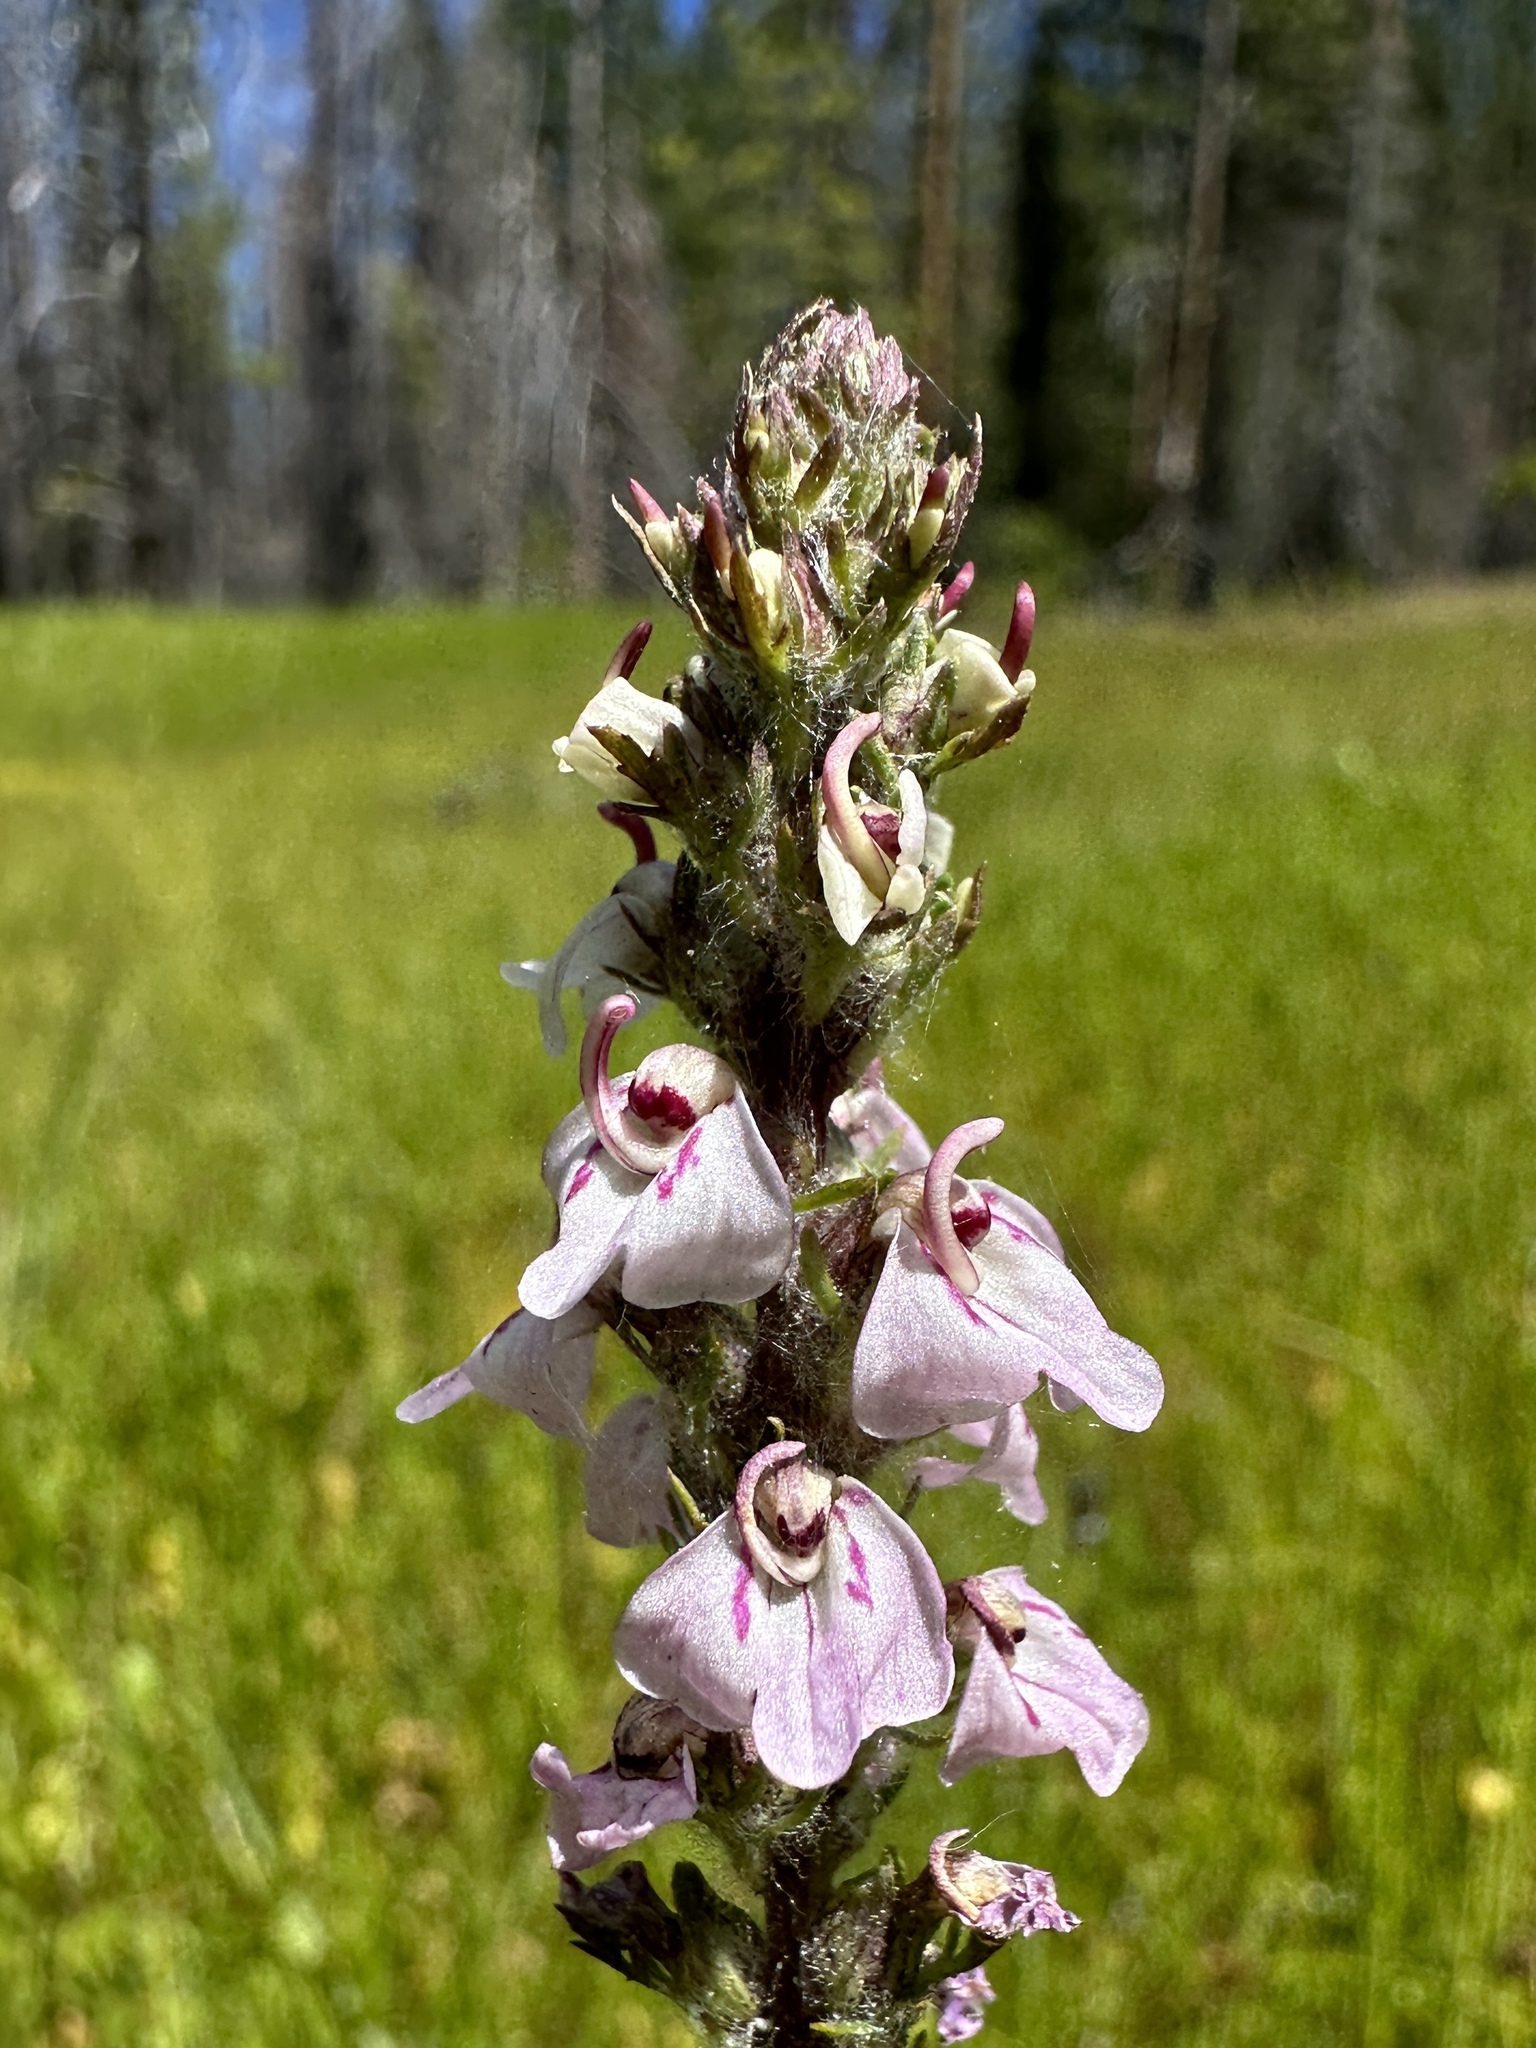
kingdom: Plantae
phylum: Tracheophyta
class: Magnoliopsida
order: Lamiales
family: Orobanchaceae
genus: Pedicularis
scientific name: Pedicularis attollens
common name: Slender pedicularis
